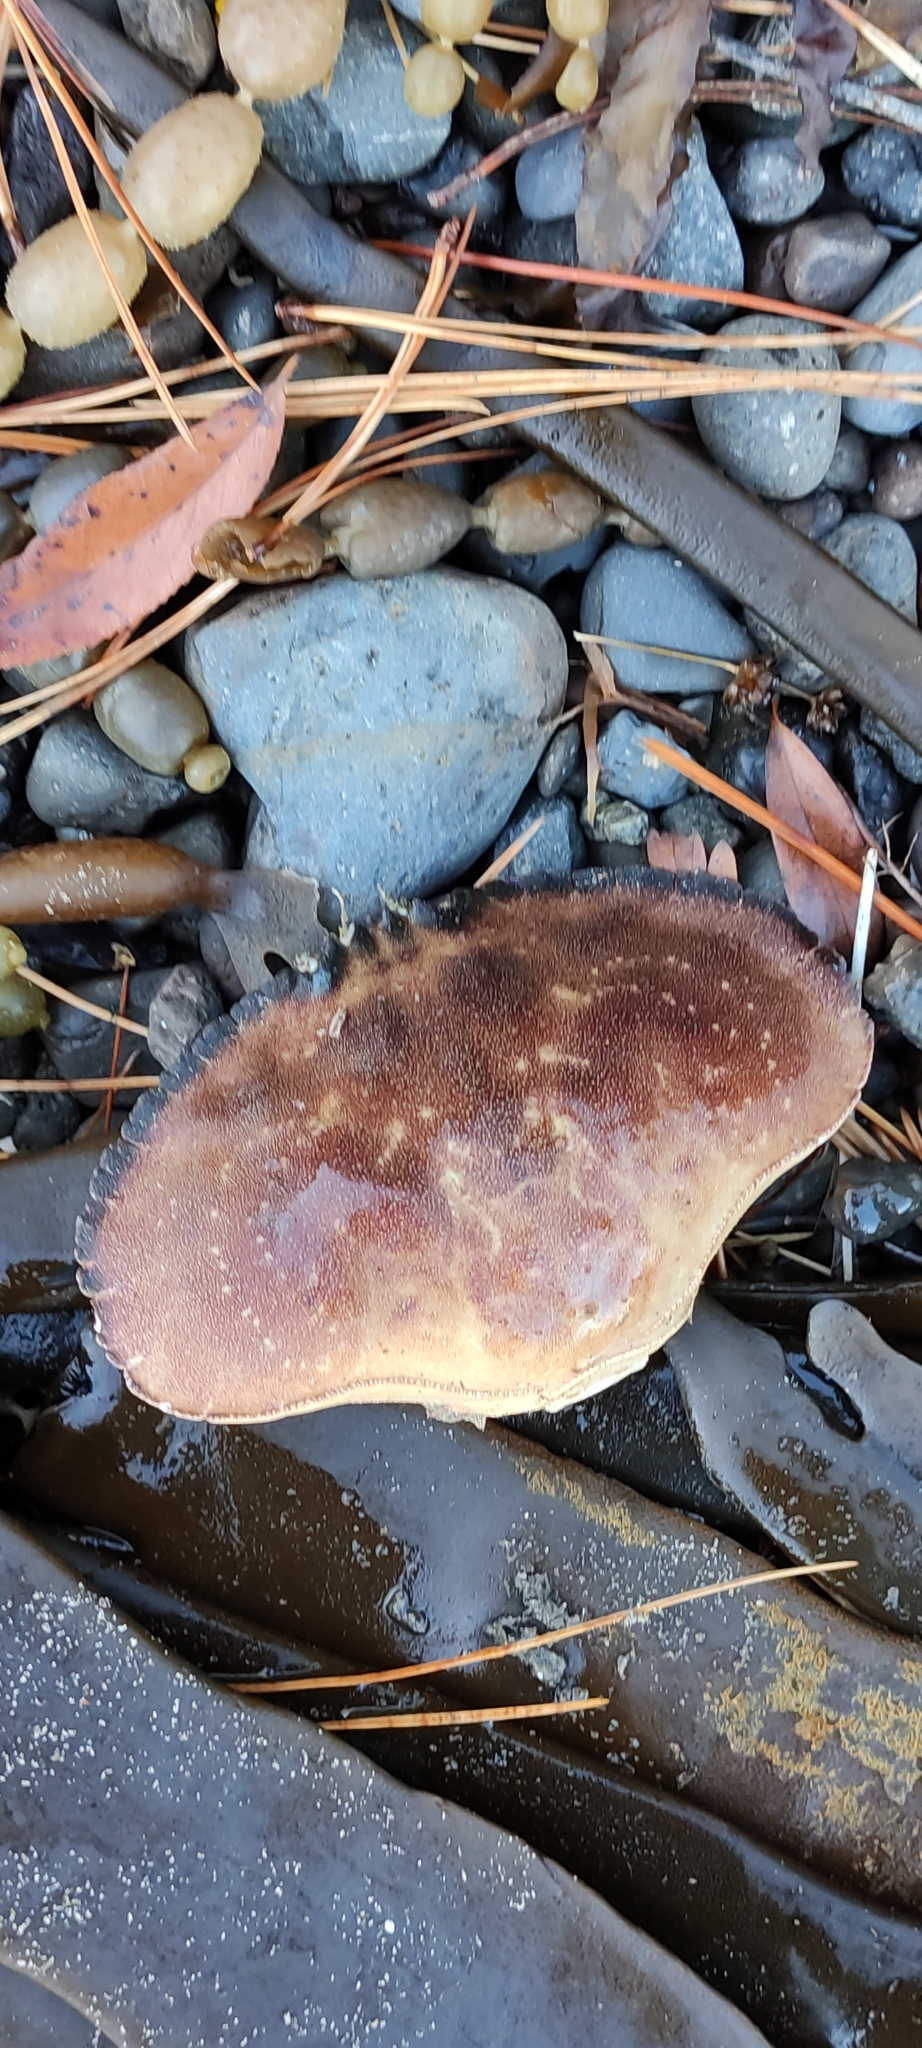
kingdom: Animalia
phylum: Arthropoda
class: Malacostraca
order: Decapoda
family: Cancridae
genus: Metacarcinus
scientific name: Metacarcinus novaezelandiae
